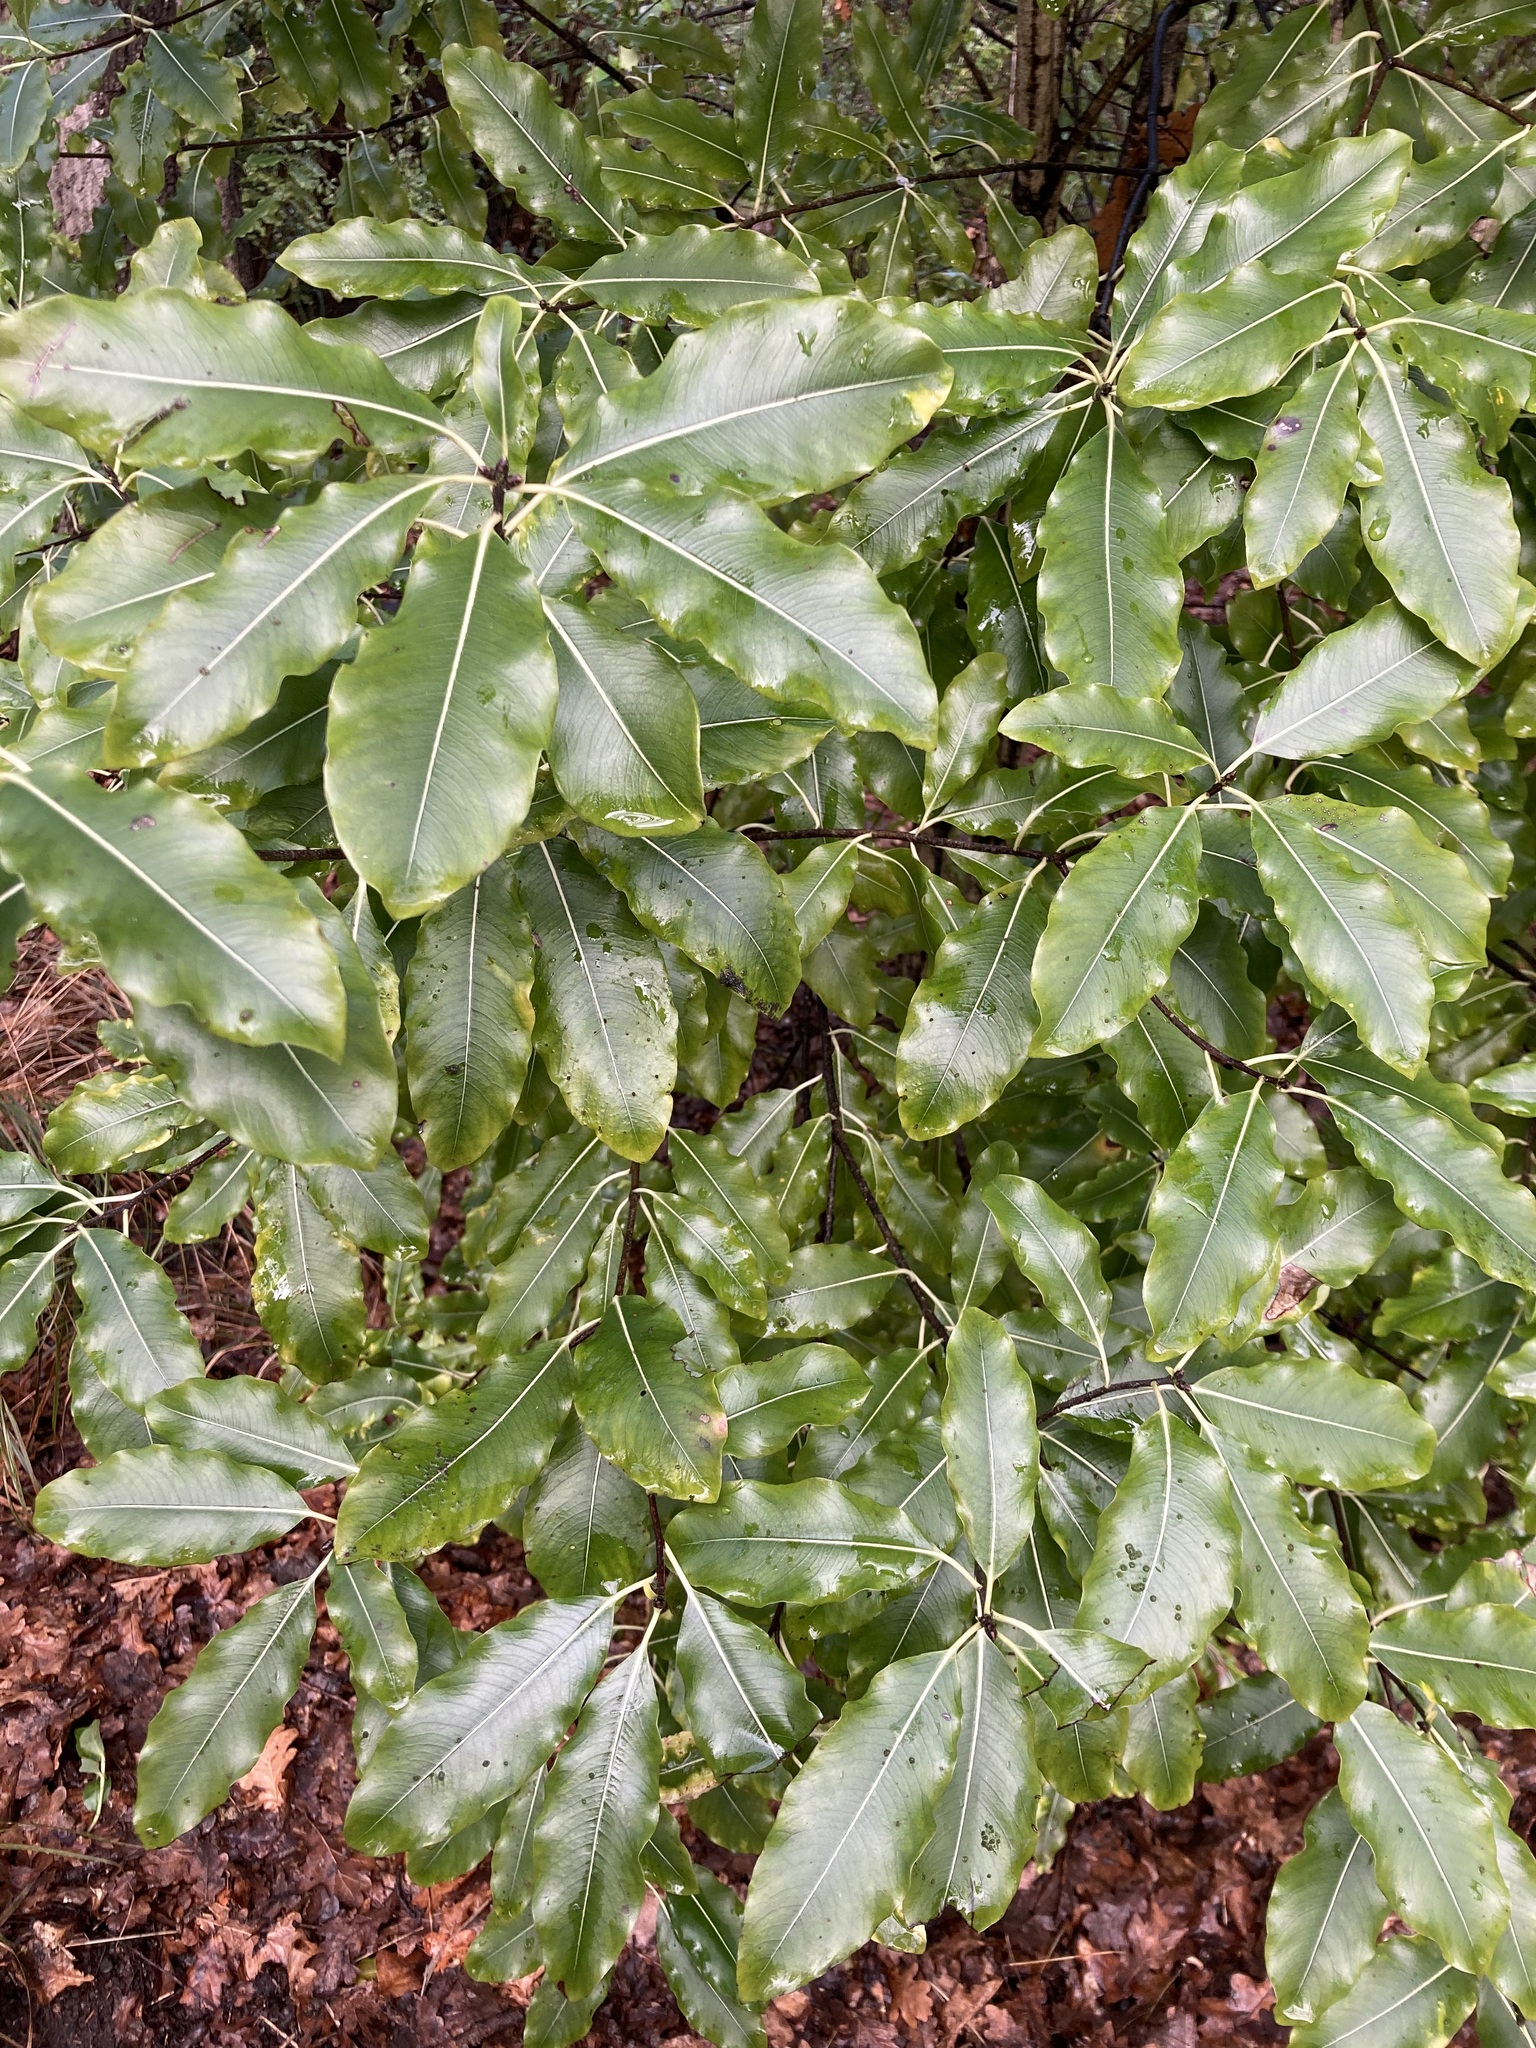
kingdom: Plantae
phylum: Tracheophyta
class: Magnoliopsida
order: Apiales
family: Pittosporaceae
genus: Pittosporum
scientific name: Pittosporum eugenioides
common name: Lemonwood
